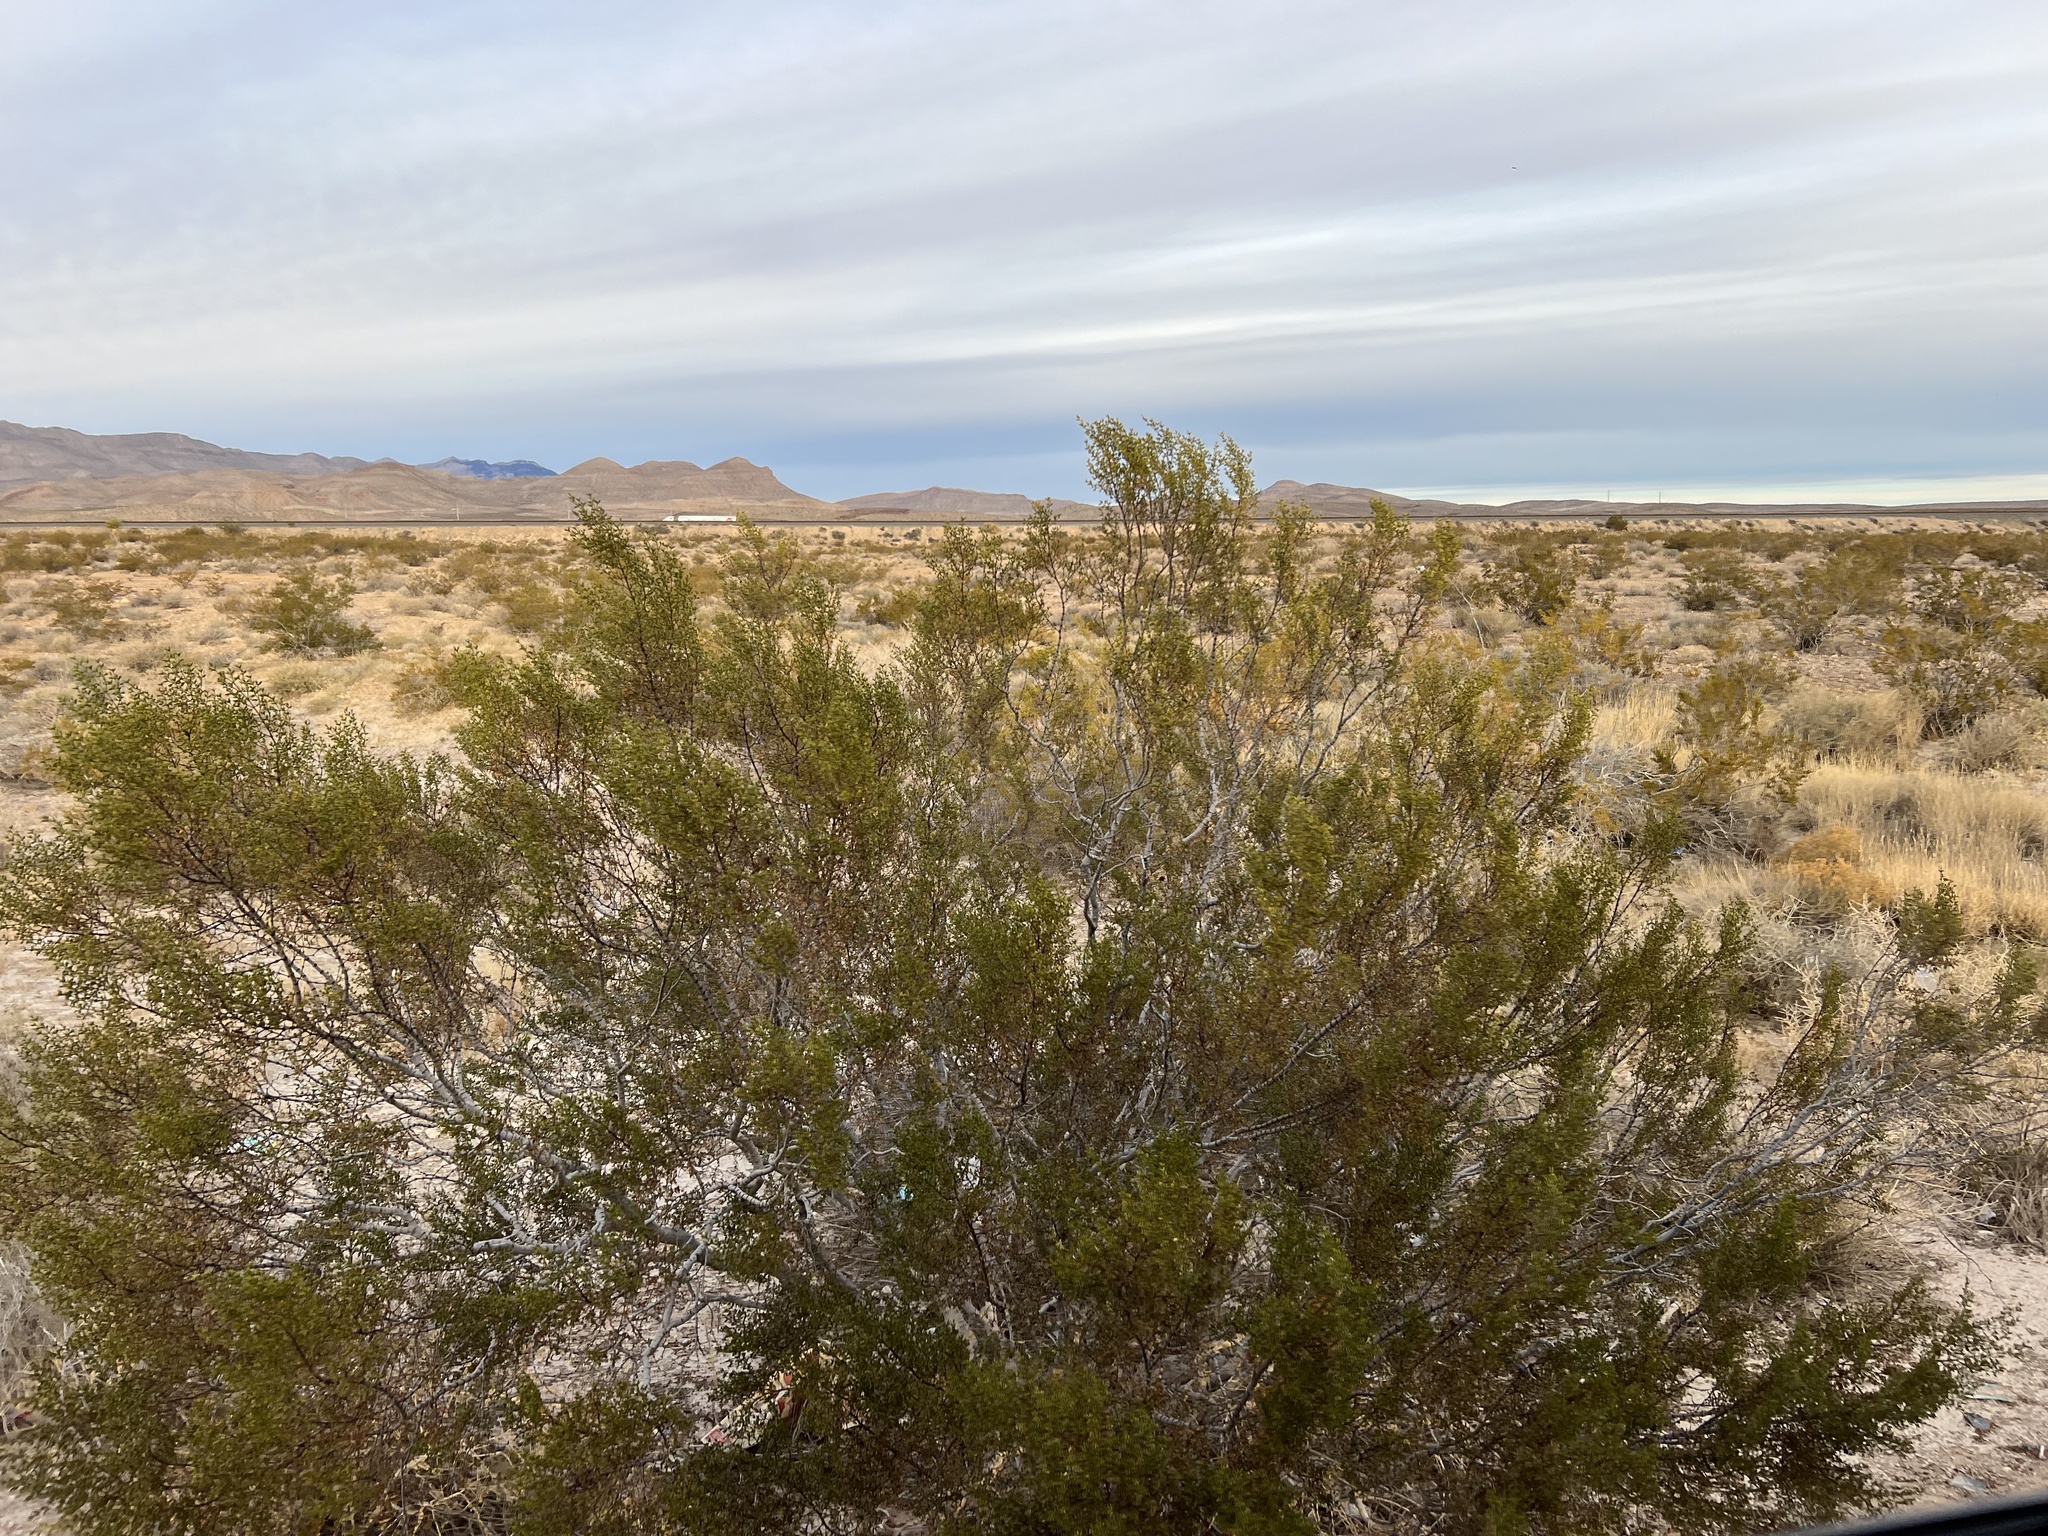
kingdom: Plantae
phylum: Tracheophyta
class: Magnoliopsida
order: Zygophyllales
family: Zygophyllaceae
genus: Larrea
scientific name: Larrea tridentata
